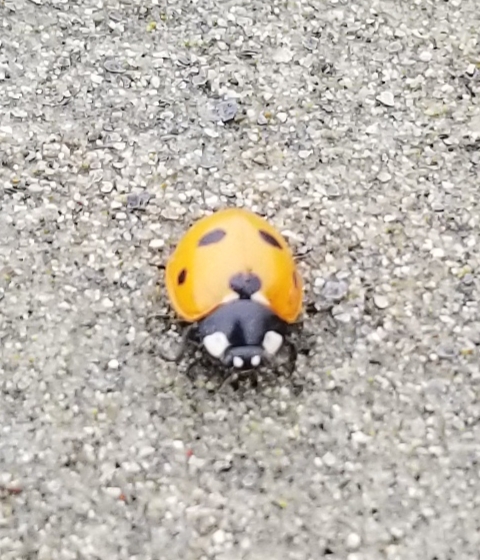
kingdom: Animalia
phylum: Arthropoda
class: Insecta
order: Coleoptera
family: Coccinellidae
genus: Coccinella
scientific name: Coccinella septempunctata
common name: Sevenspotted lady beetle
